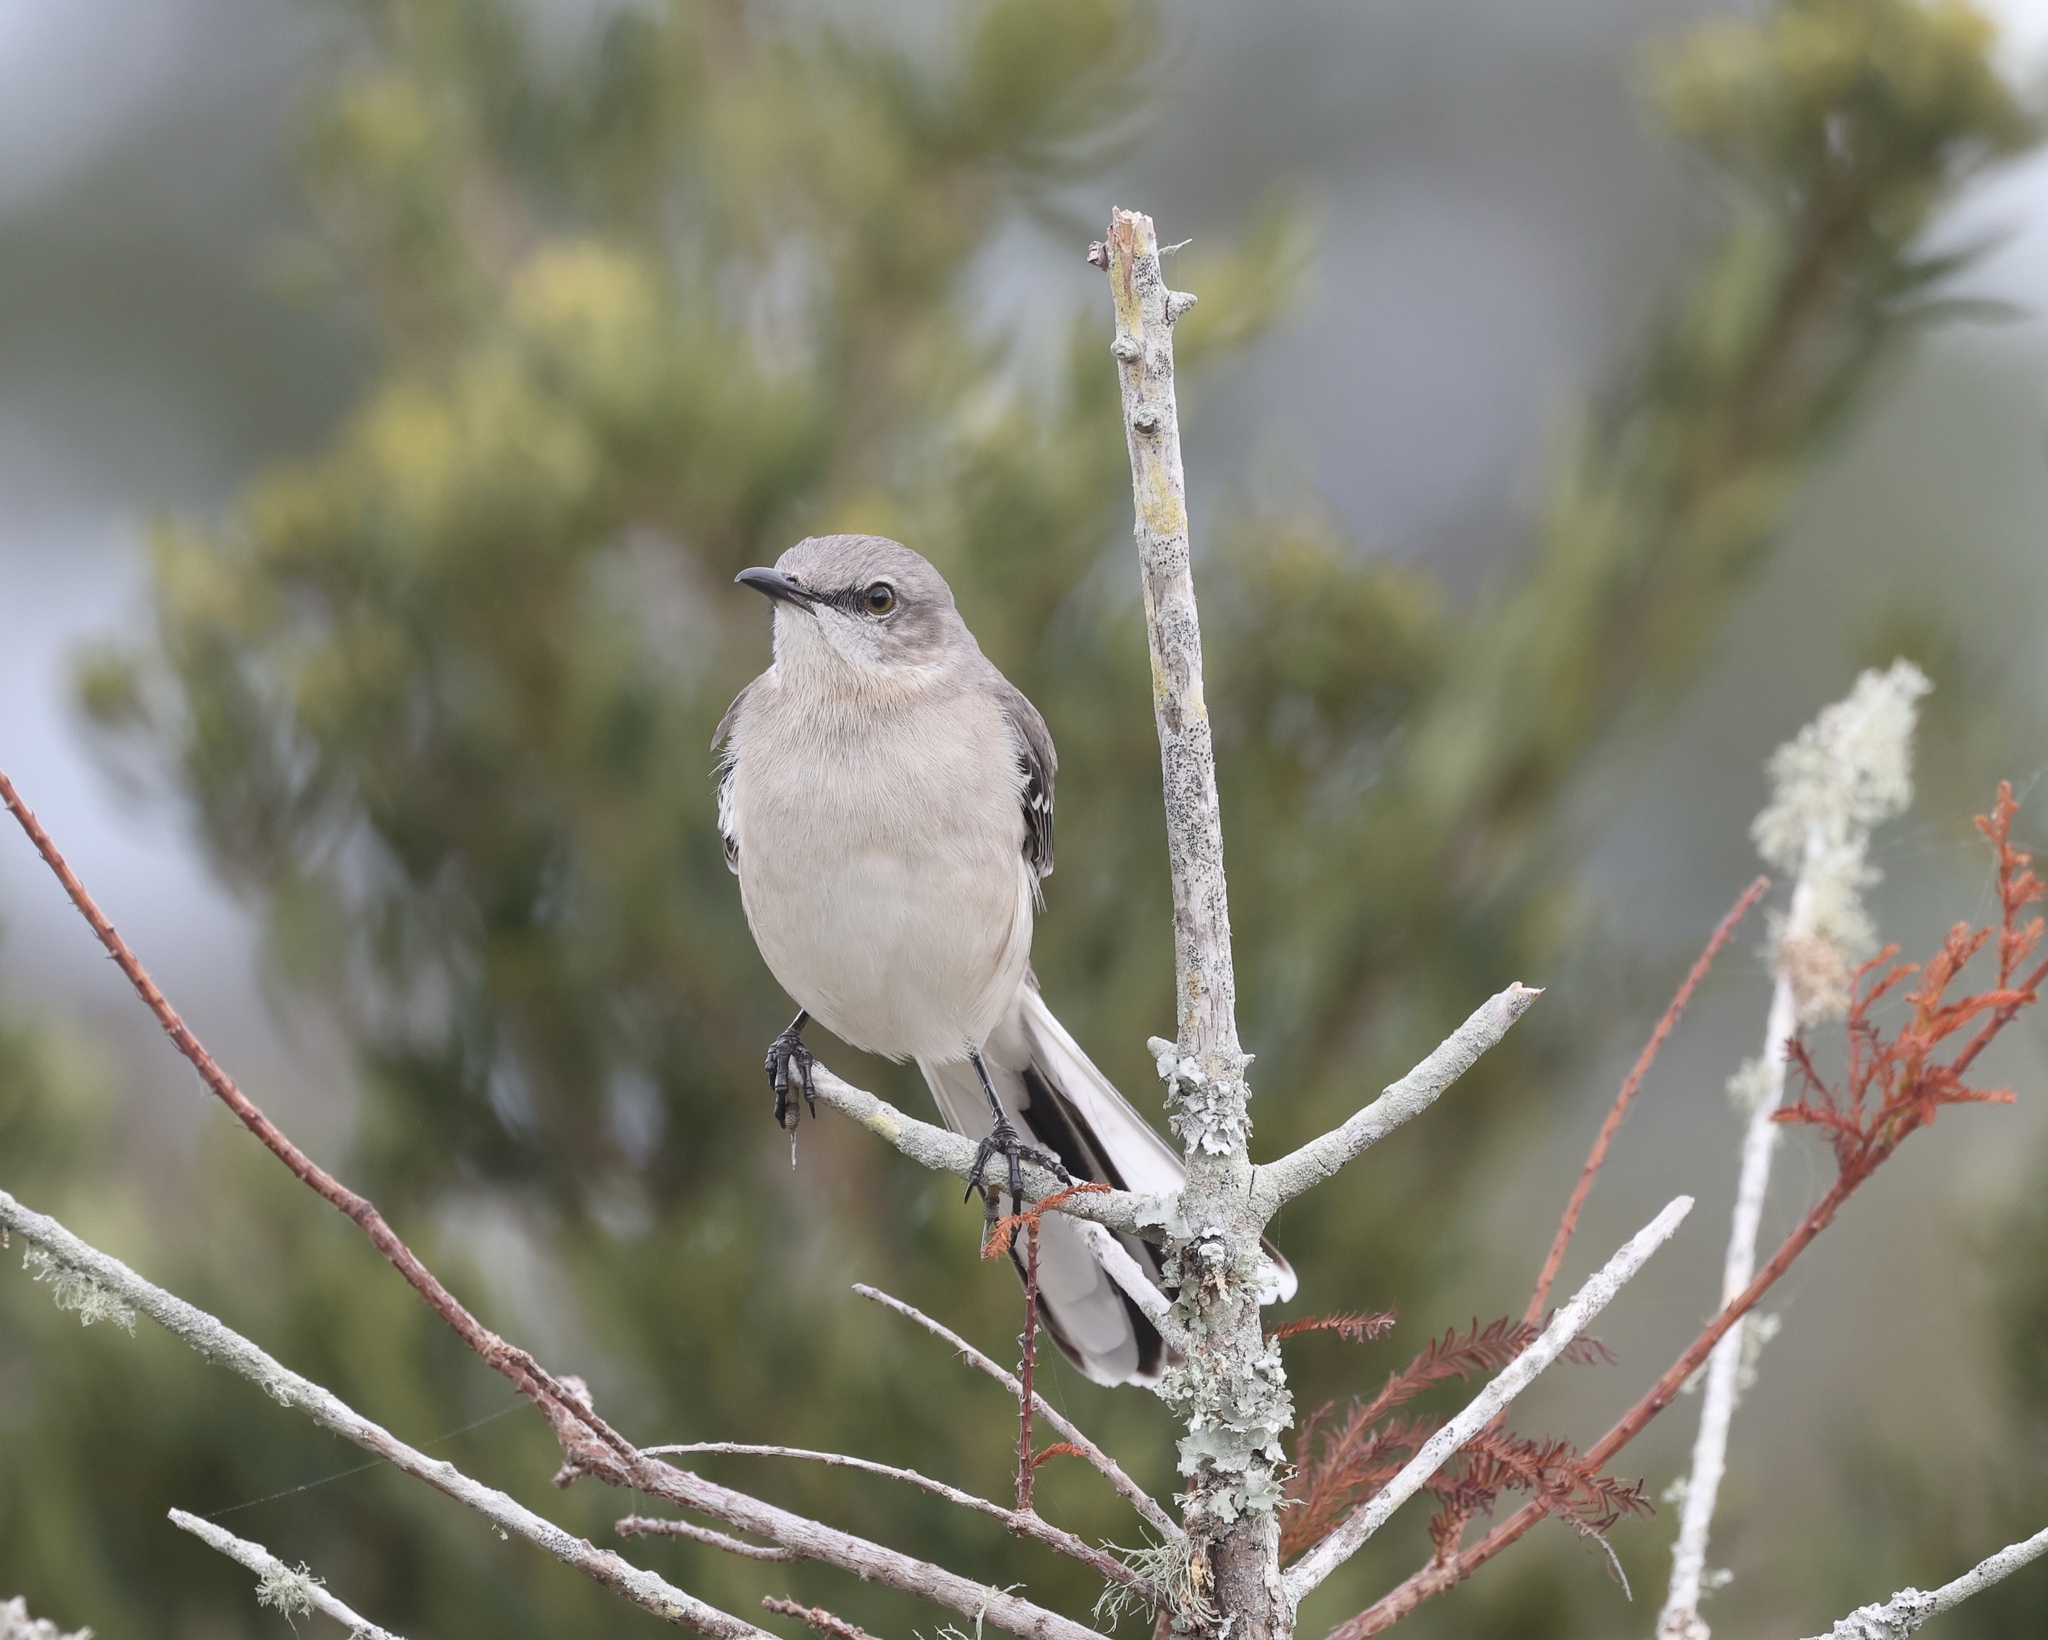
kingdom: Animalia
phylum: Chordata
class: Aves
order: Passeriformes
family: Mimidae
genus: Mimus
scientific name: Mimus polyglottos
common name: Northern mockingbird
